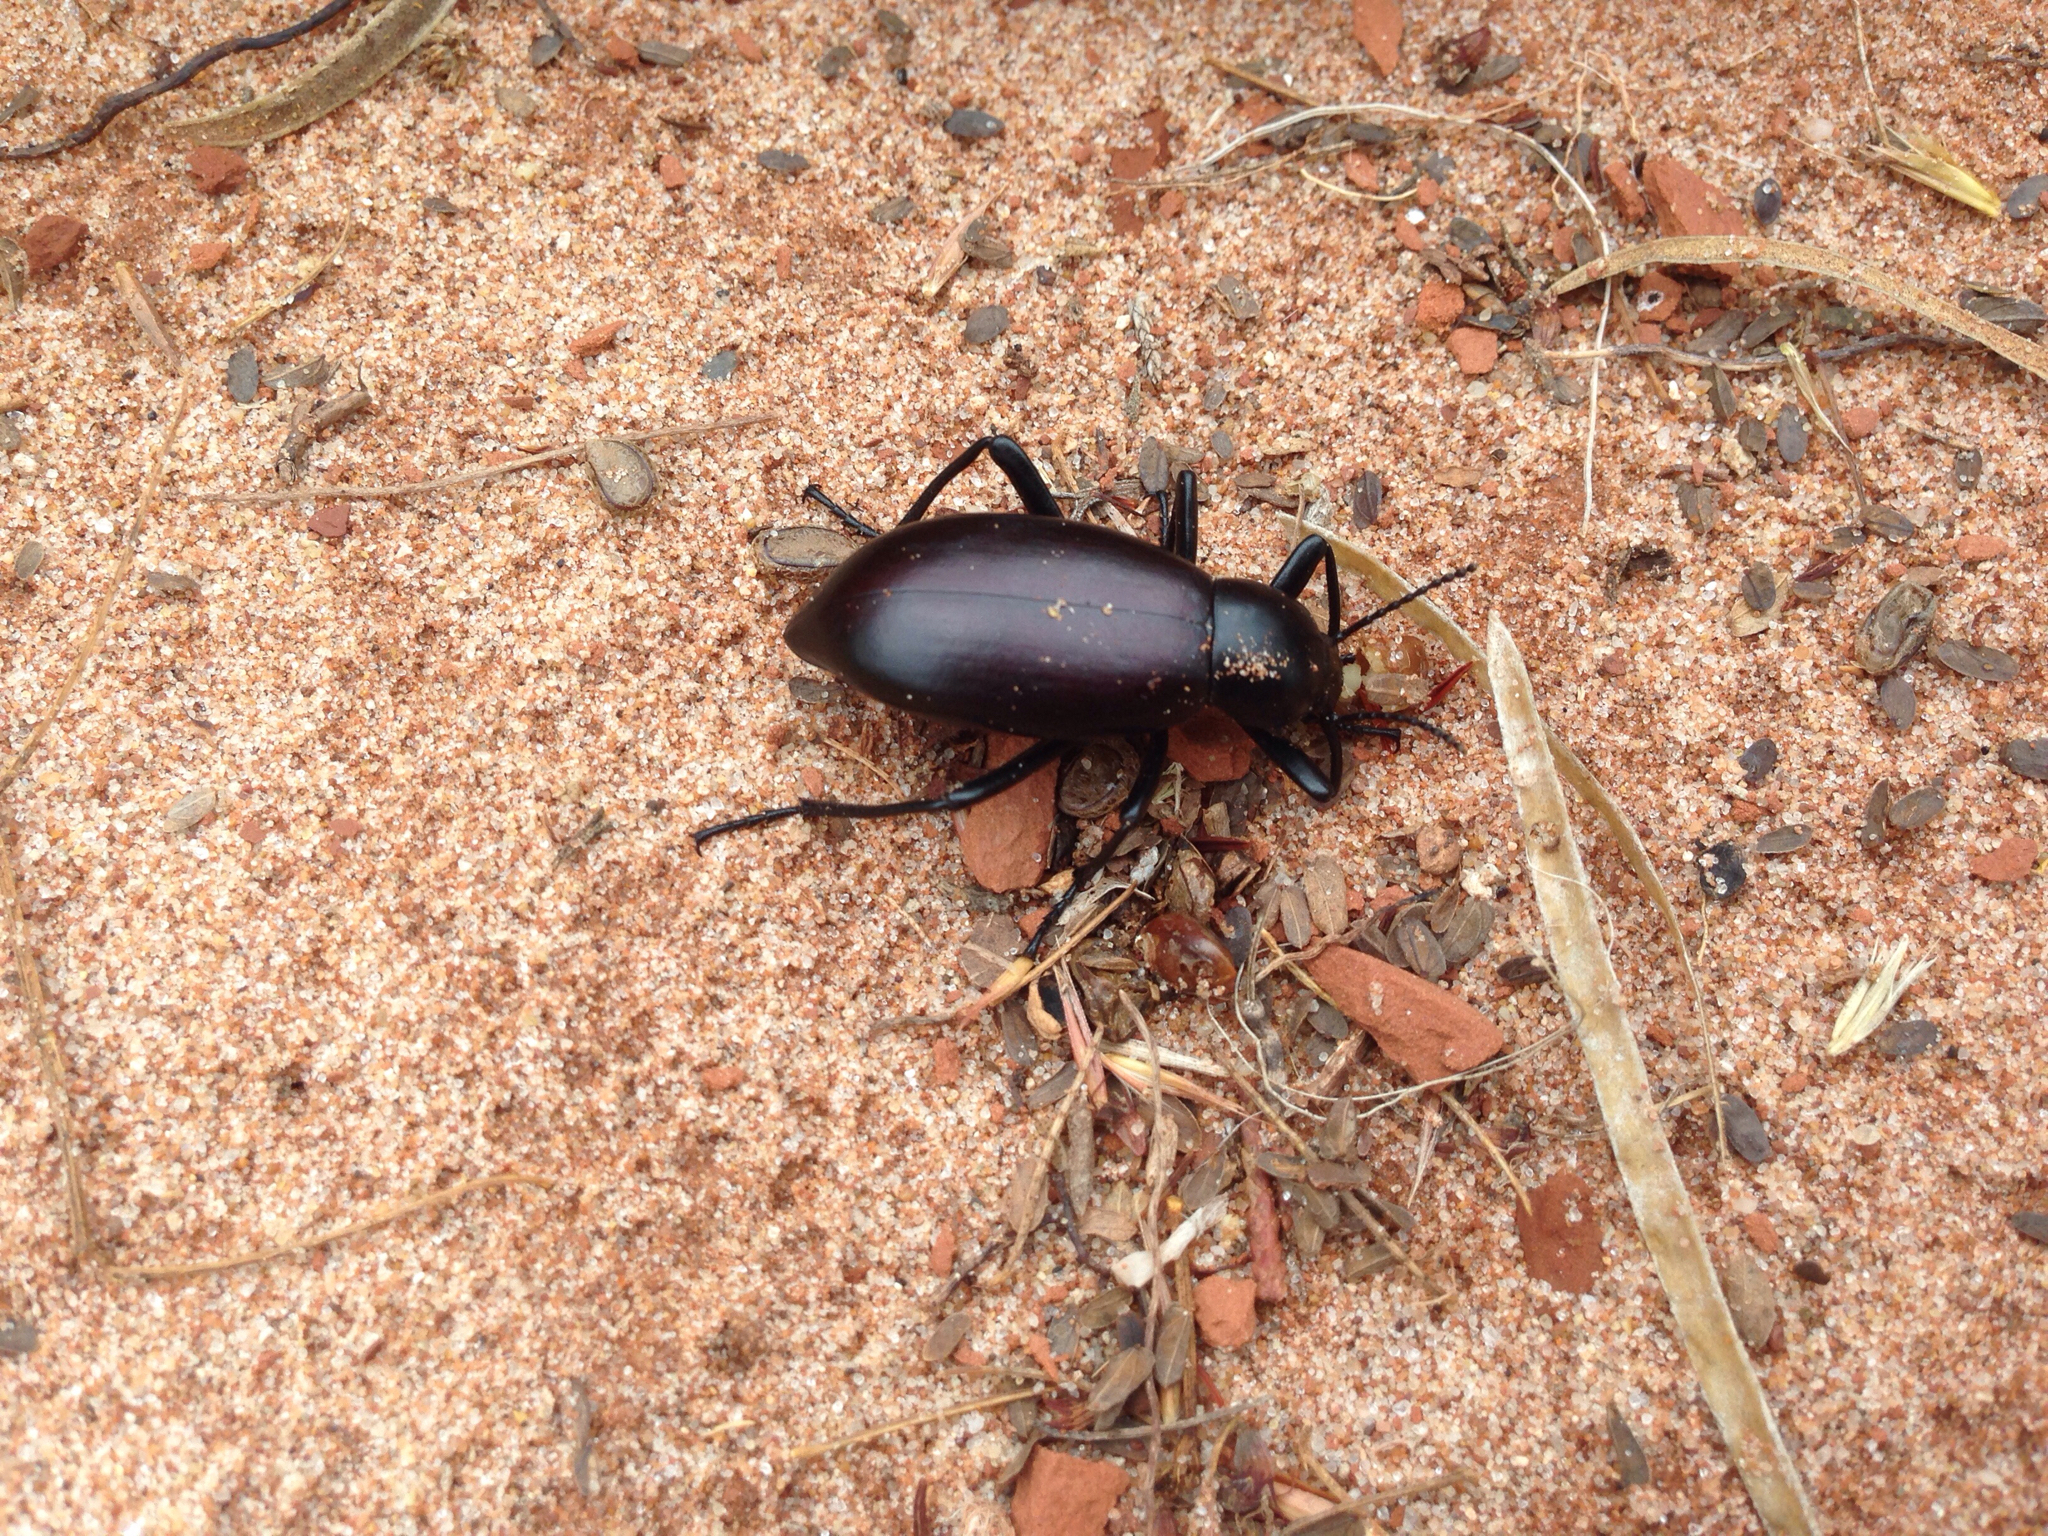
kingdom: Animalia
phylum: Arthropoda
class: Insecta
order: Coleoptera
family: Tenebrionidae
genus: Eleodes
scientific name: Eleodes longicollis
